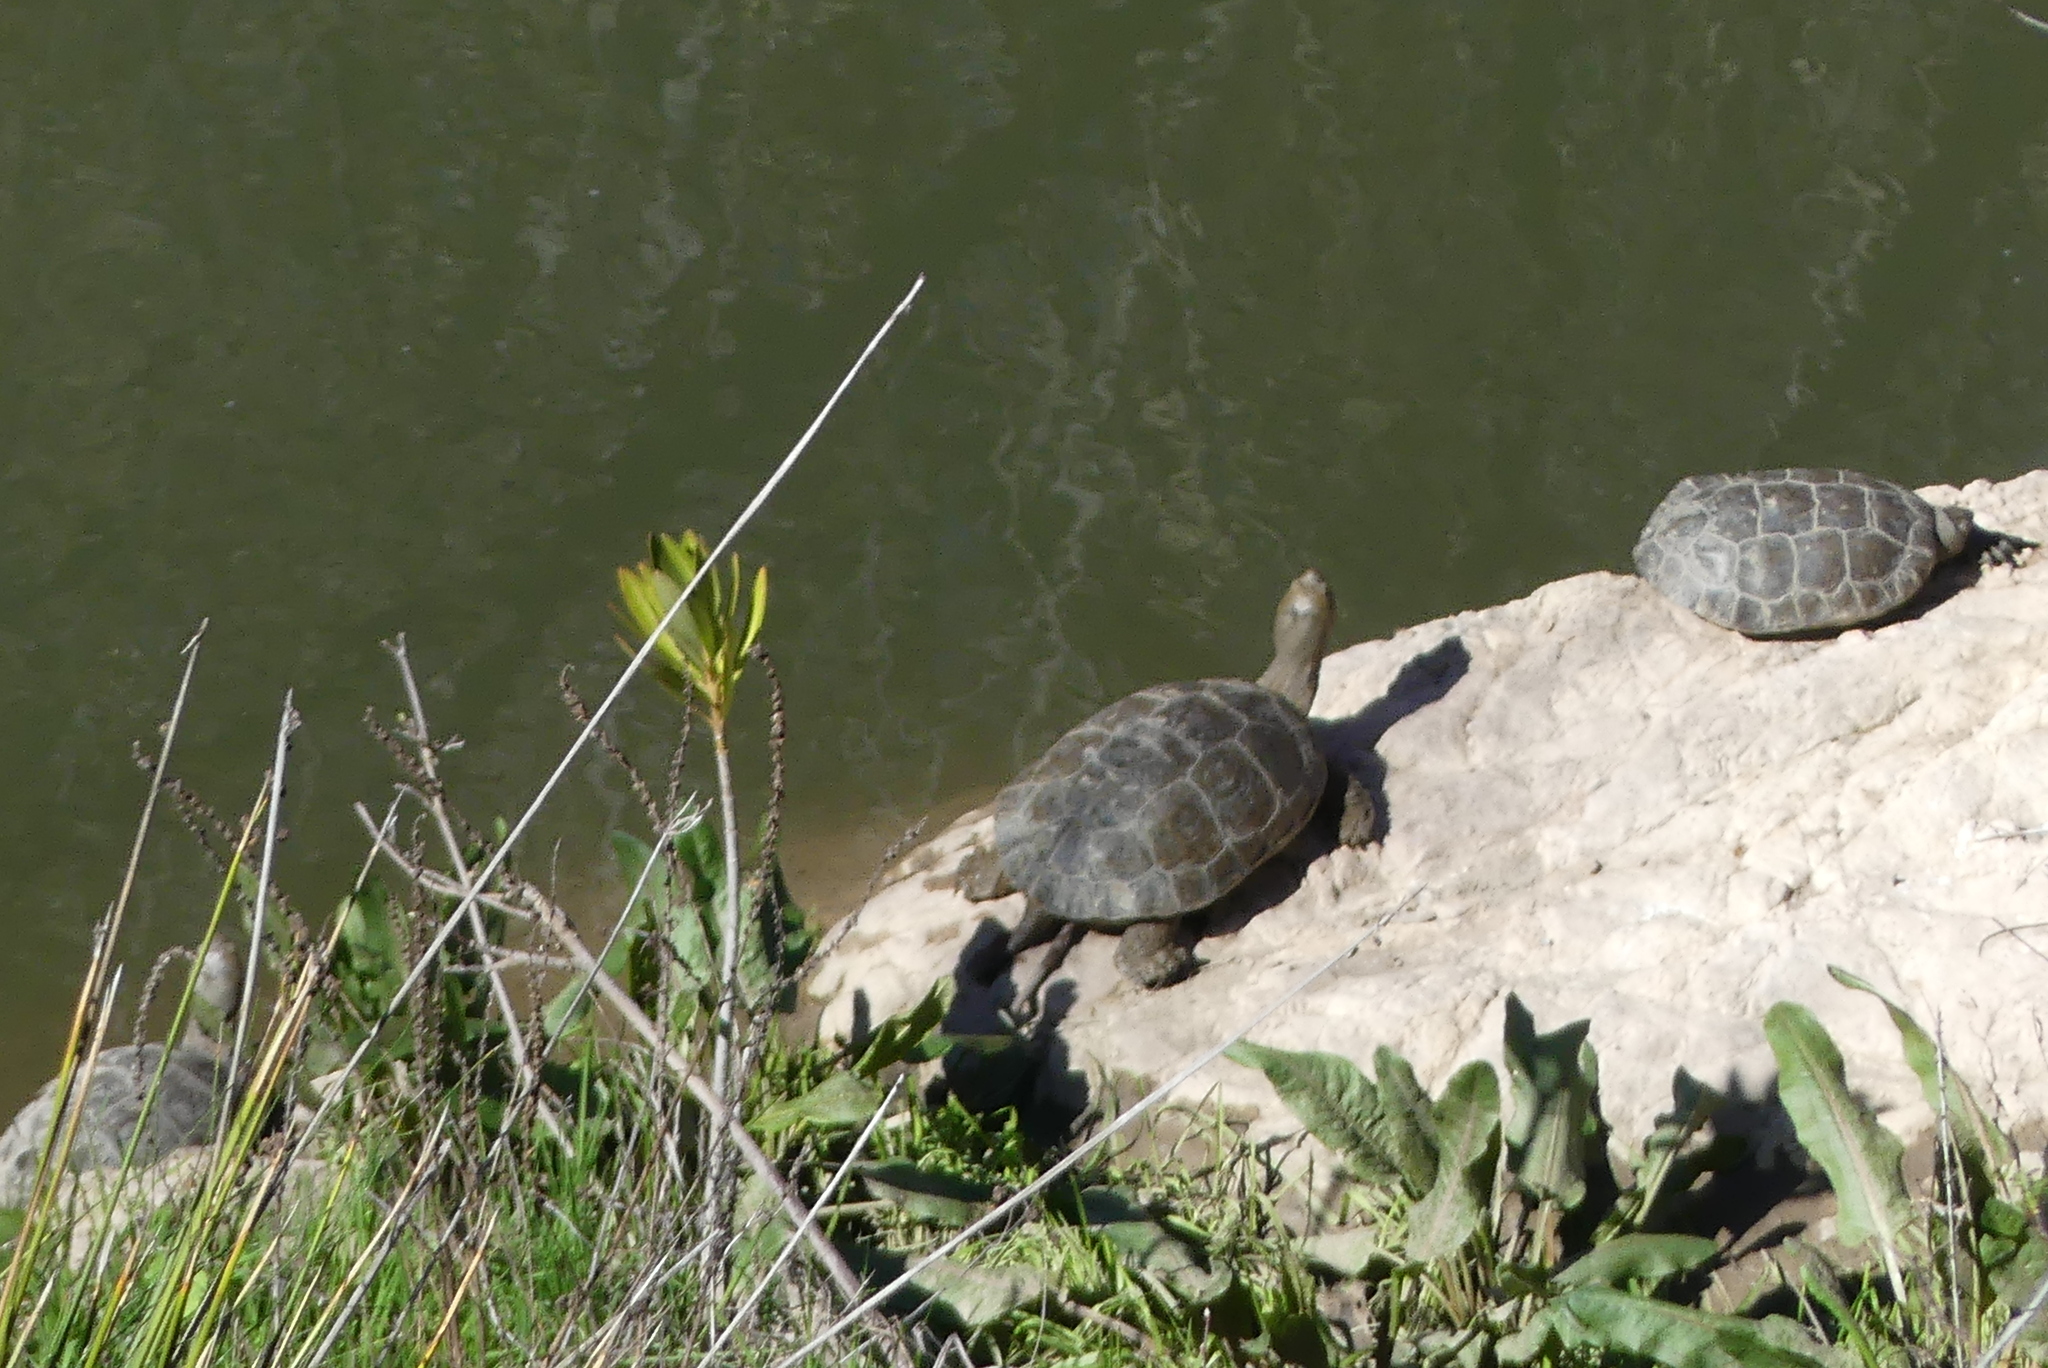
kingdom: Animalia
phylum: Chordata
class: Testudines
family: Geoemydidae
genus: Mauremys
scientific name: Mauremys leprosa
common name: Mediterranean pond turtle
